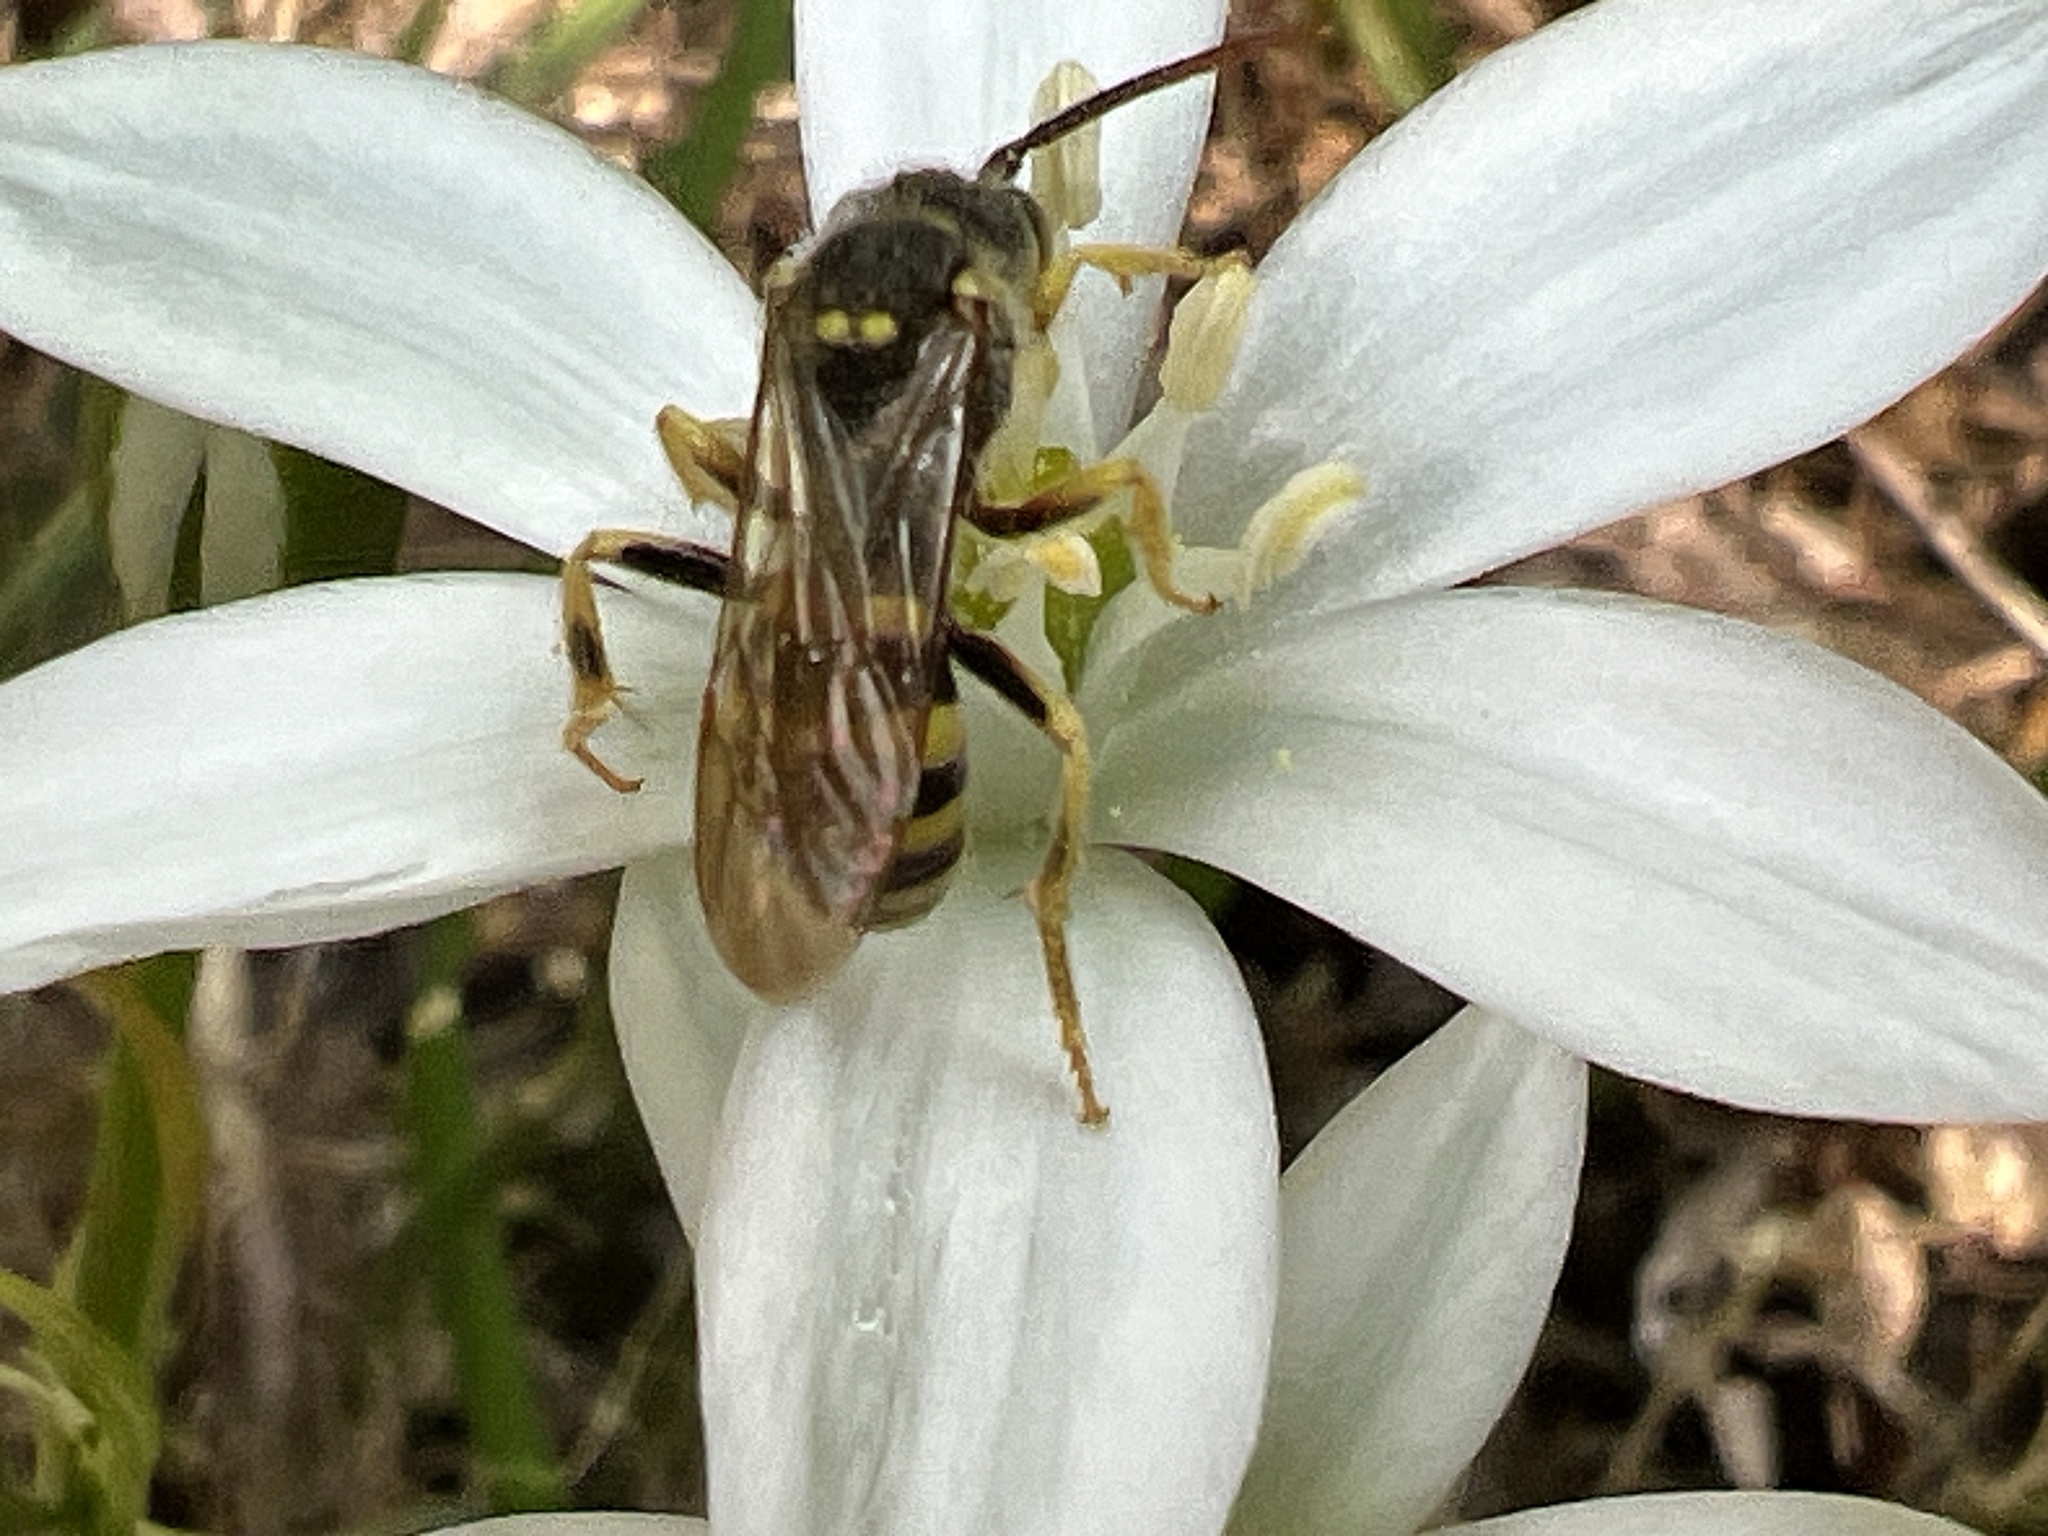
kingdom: Animalia
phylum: Arthropoda
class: Insecta
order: Hymenoptera
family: Apidae
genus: Nomada
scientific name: Nomada luteoloides
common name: Black-and-yellow nomad bee
